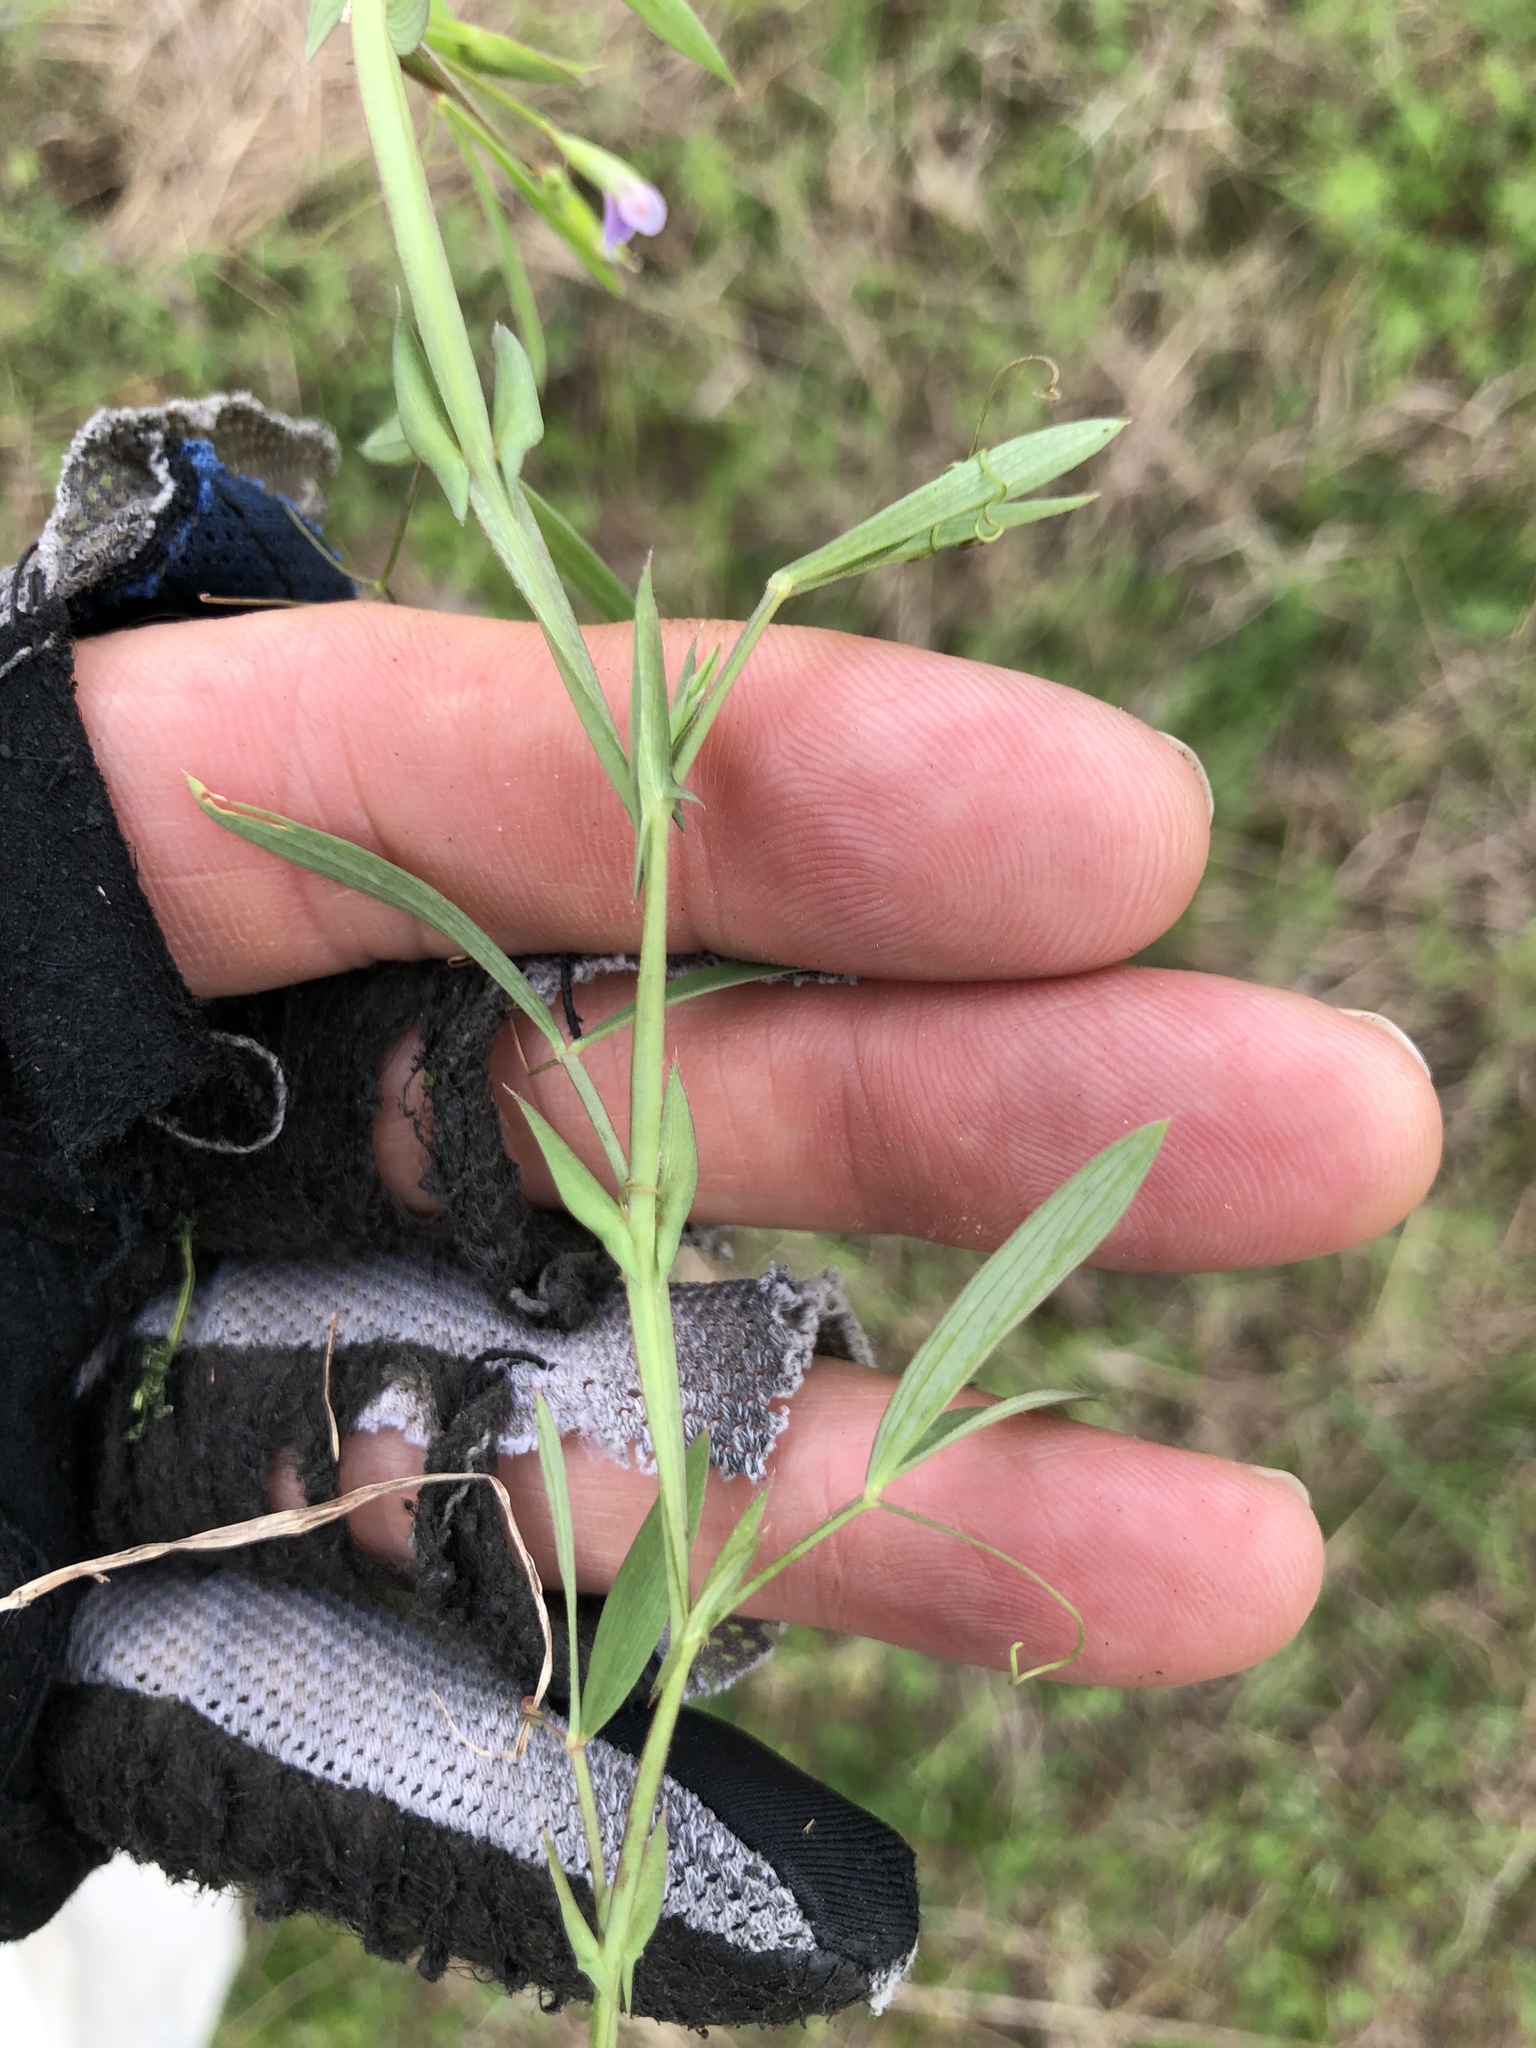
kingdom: Plantae
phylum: Tracheophyta
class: Magnoliopsida
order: Fabales
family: Fabaceae
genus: Lathyrus
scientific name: Lathyrus pusillus
